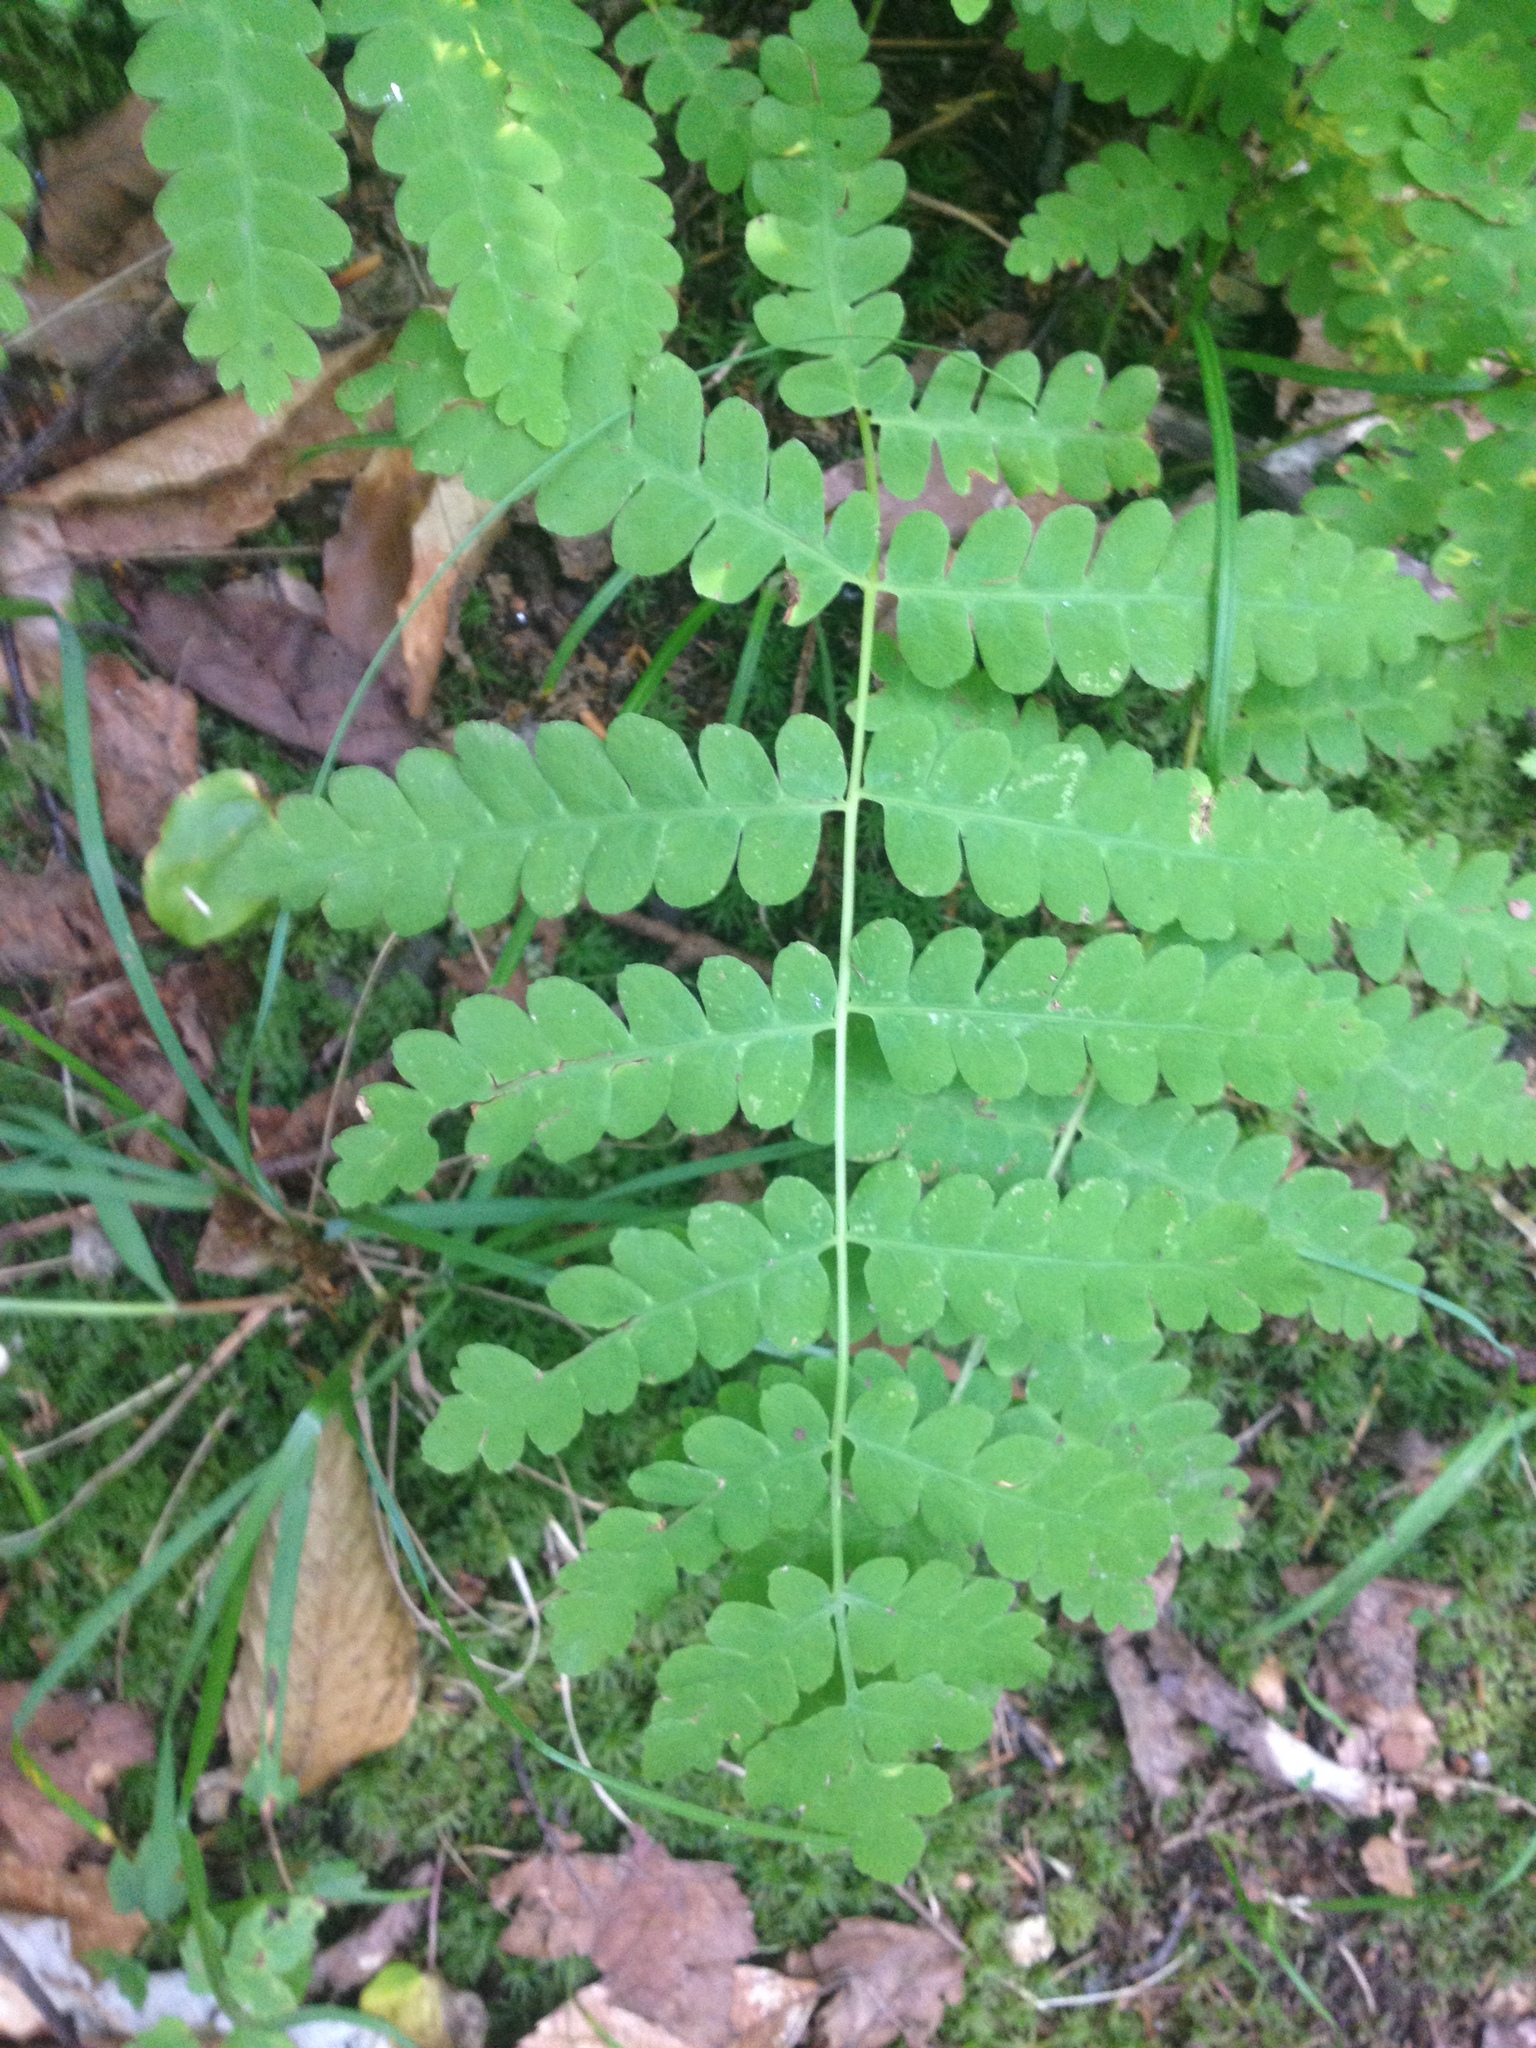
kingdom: Plantae
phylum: Tracheophyta
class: Polypodiopsida
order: Osmundales
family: Osmundaceae
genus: Claytosmunda
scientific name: Claytosmunda claytoniana
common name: Clayton's fern
